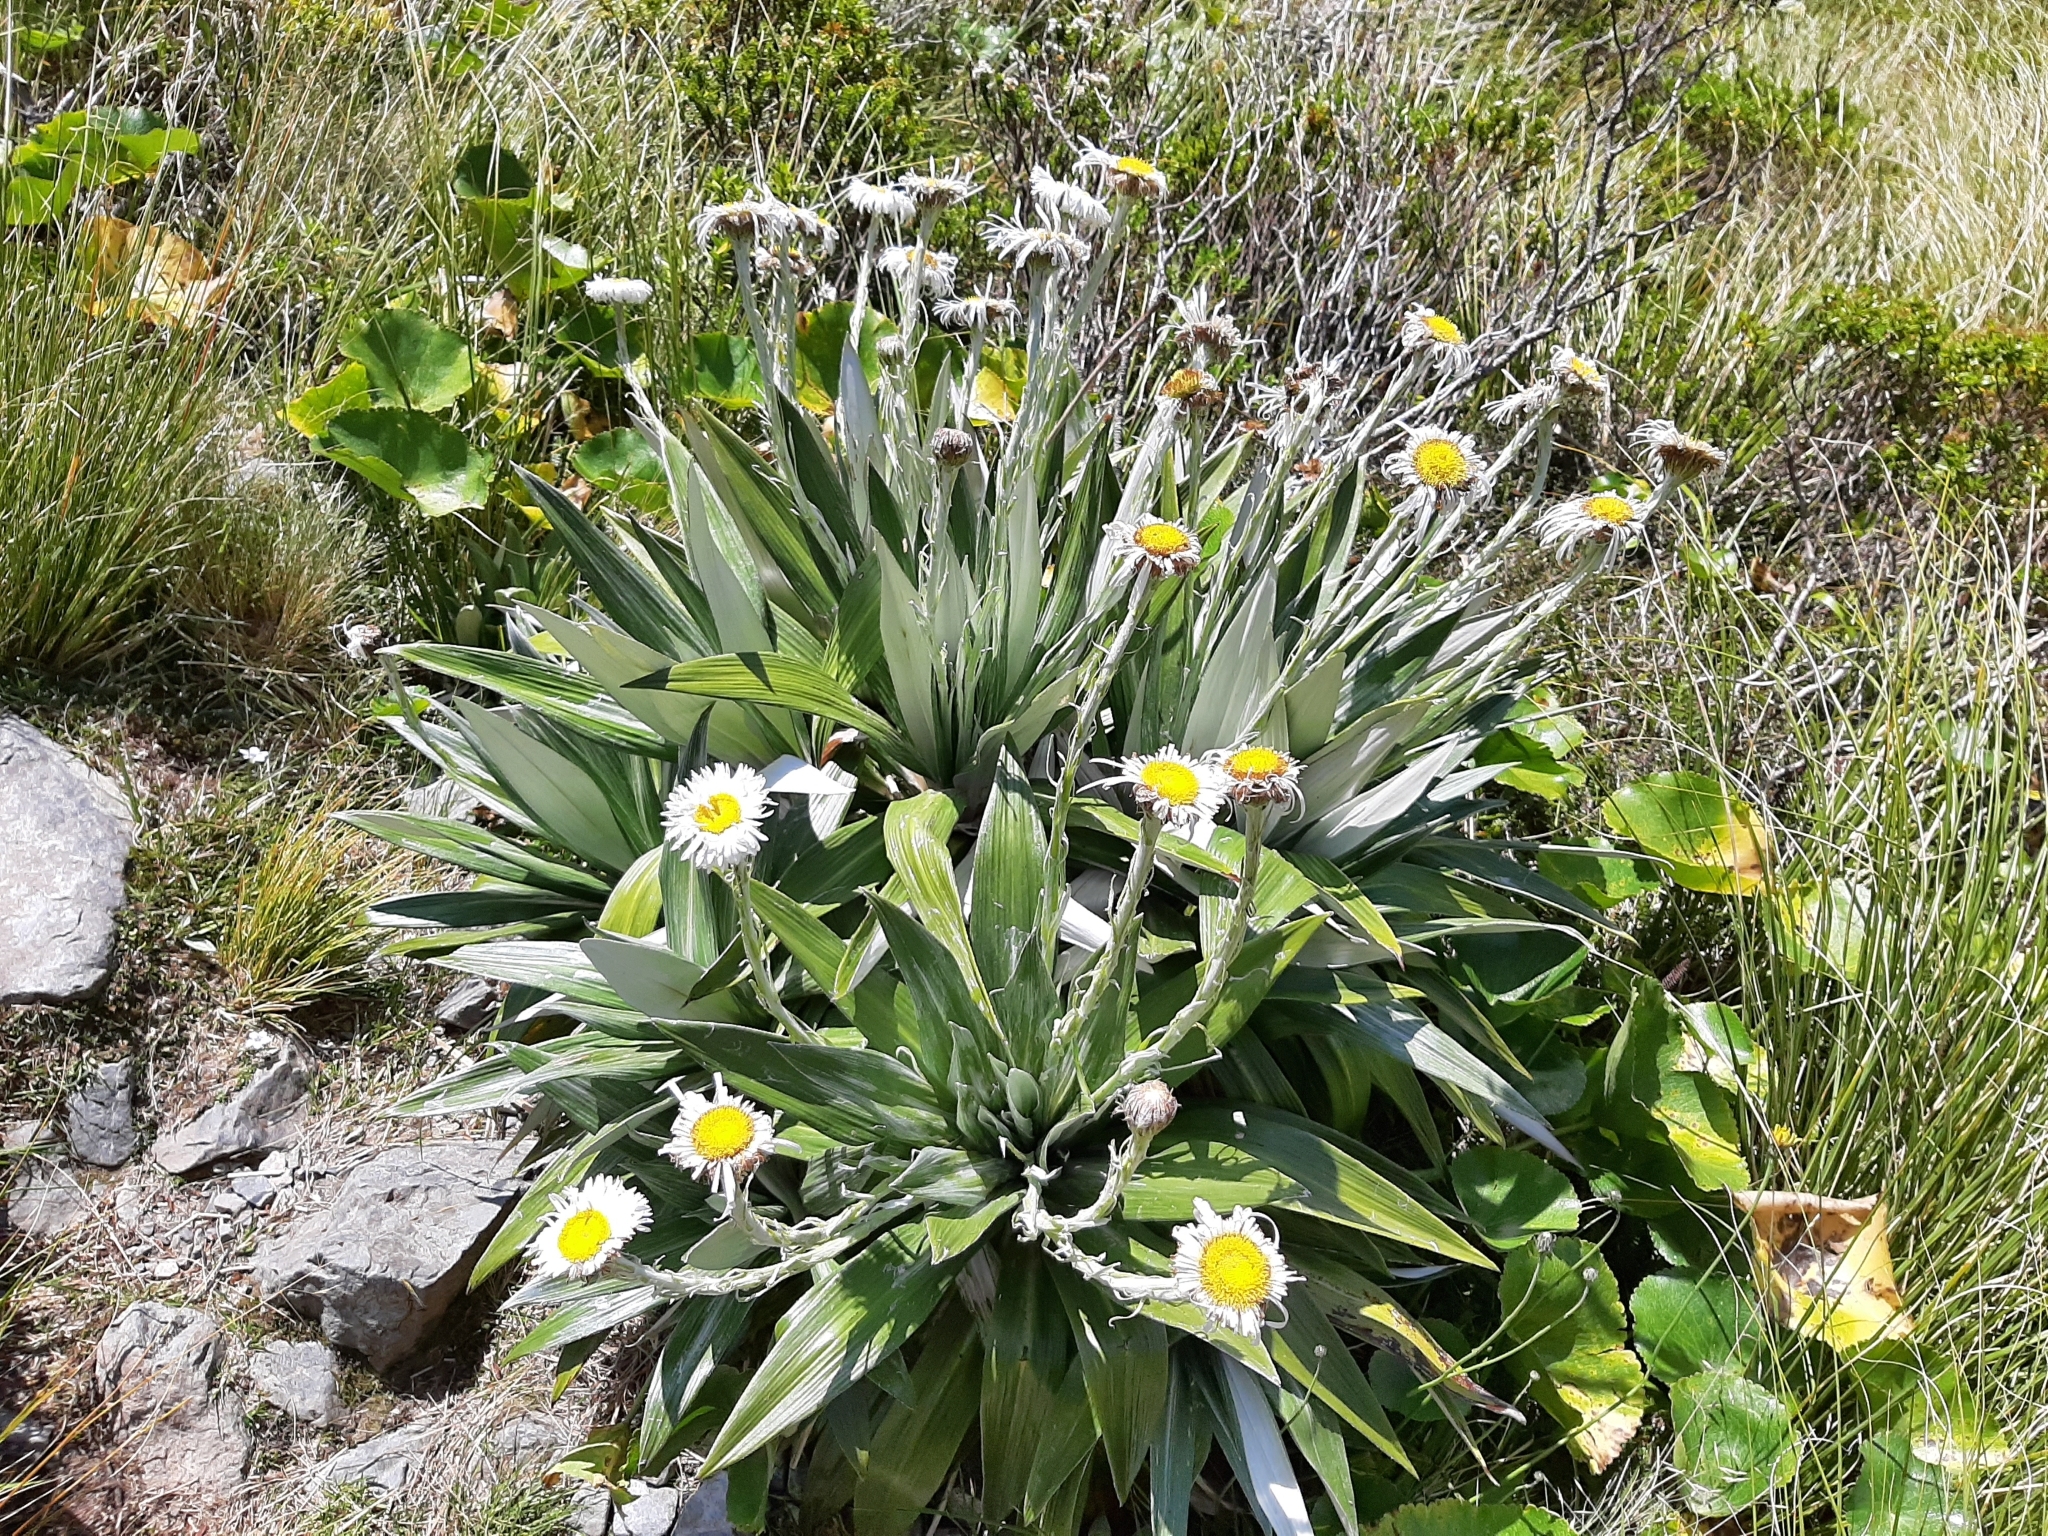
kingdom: Plantae
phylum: Tracheophyta
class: Magnoliopsida
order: Asterales
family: Asteraceae
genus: Celmisia
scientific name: Celmisia semicordata
